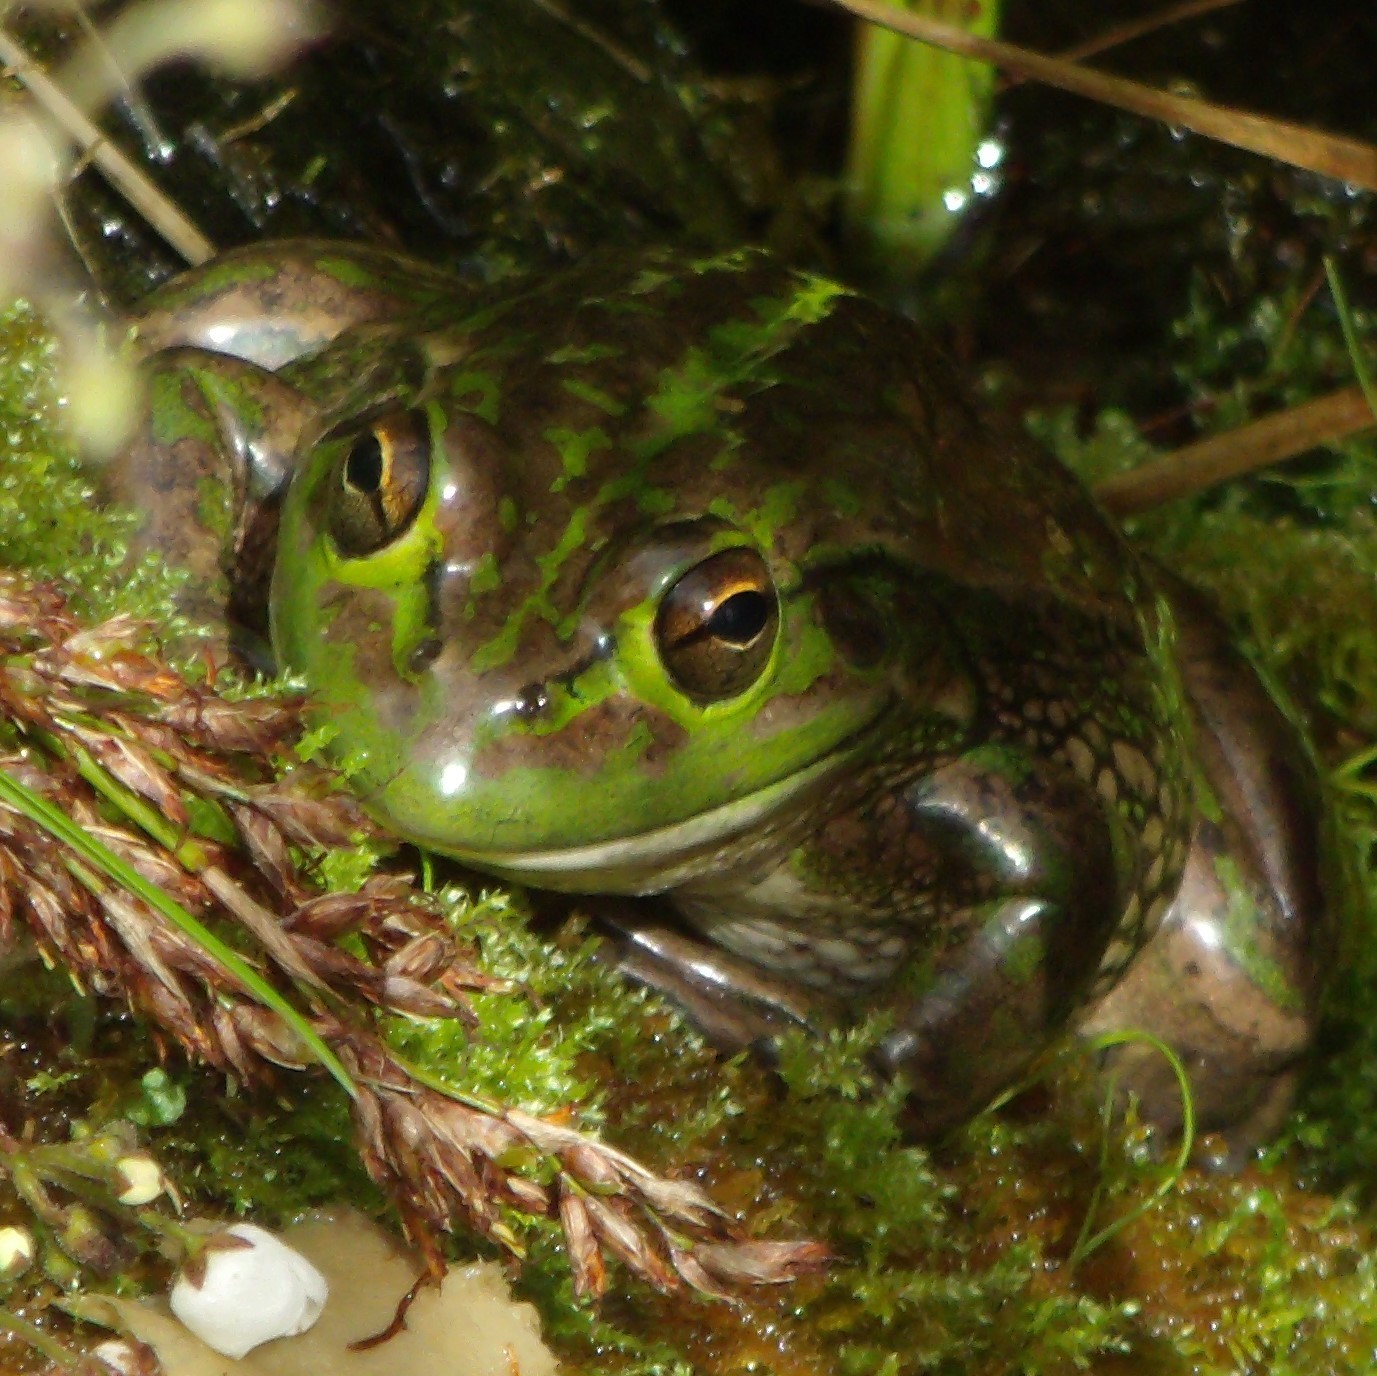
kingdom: Animalia
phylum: Chordata
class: Amphibia
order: Anura
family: Pelodryadidae
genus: Ranoidea
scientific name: Ranoidea raniformis
